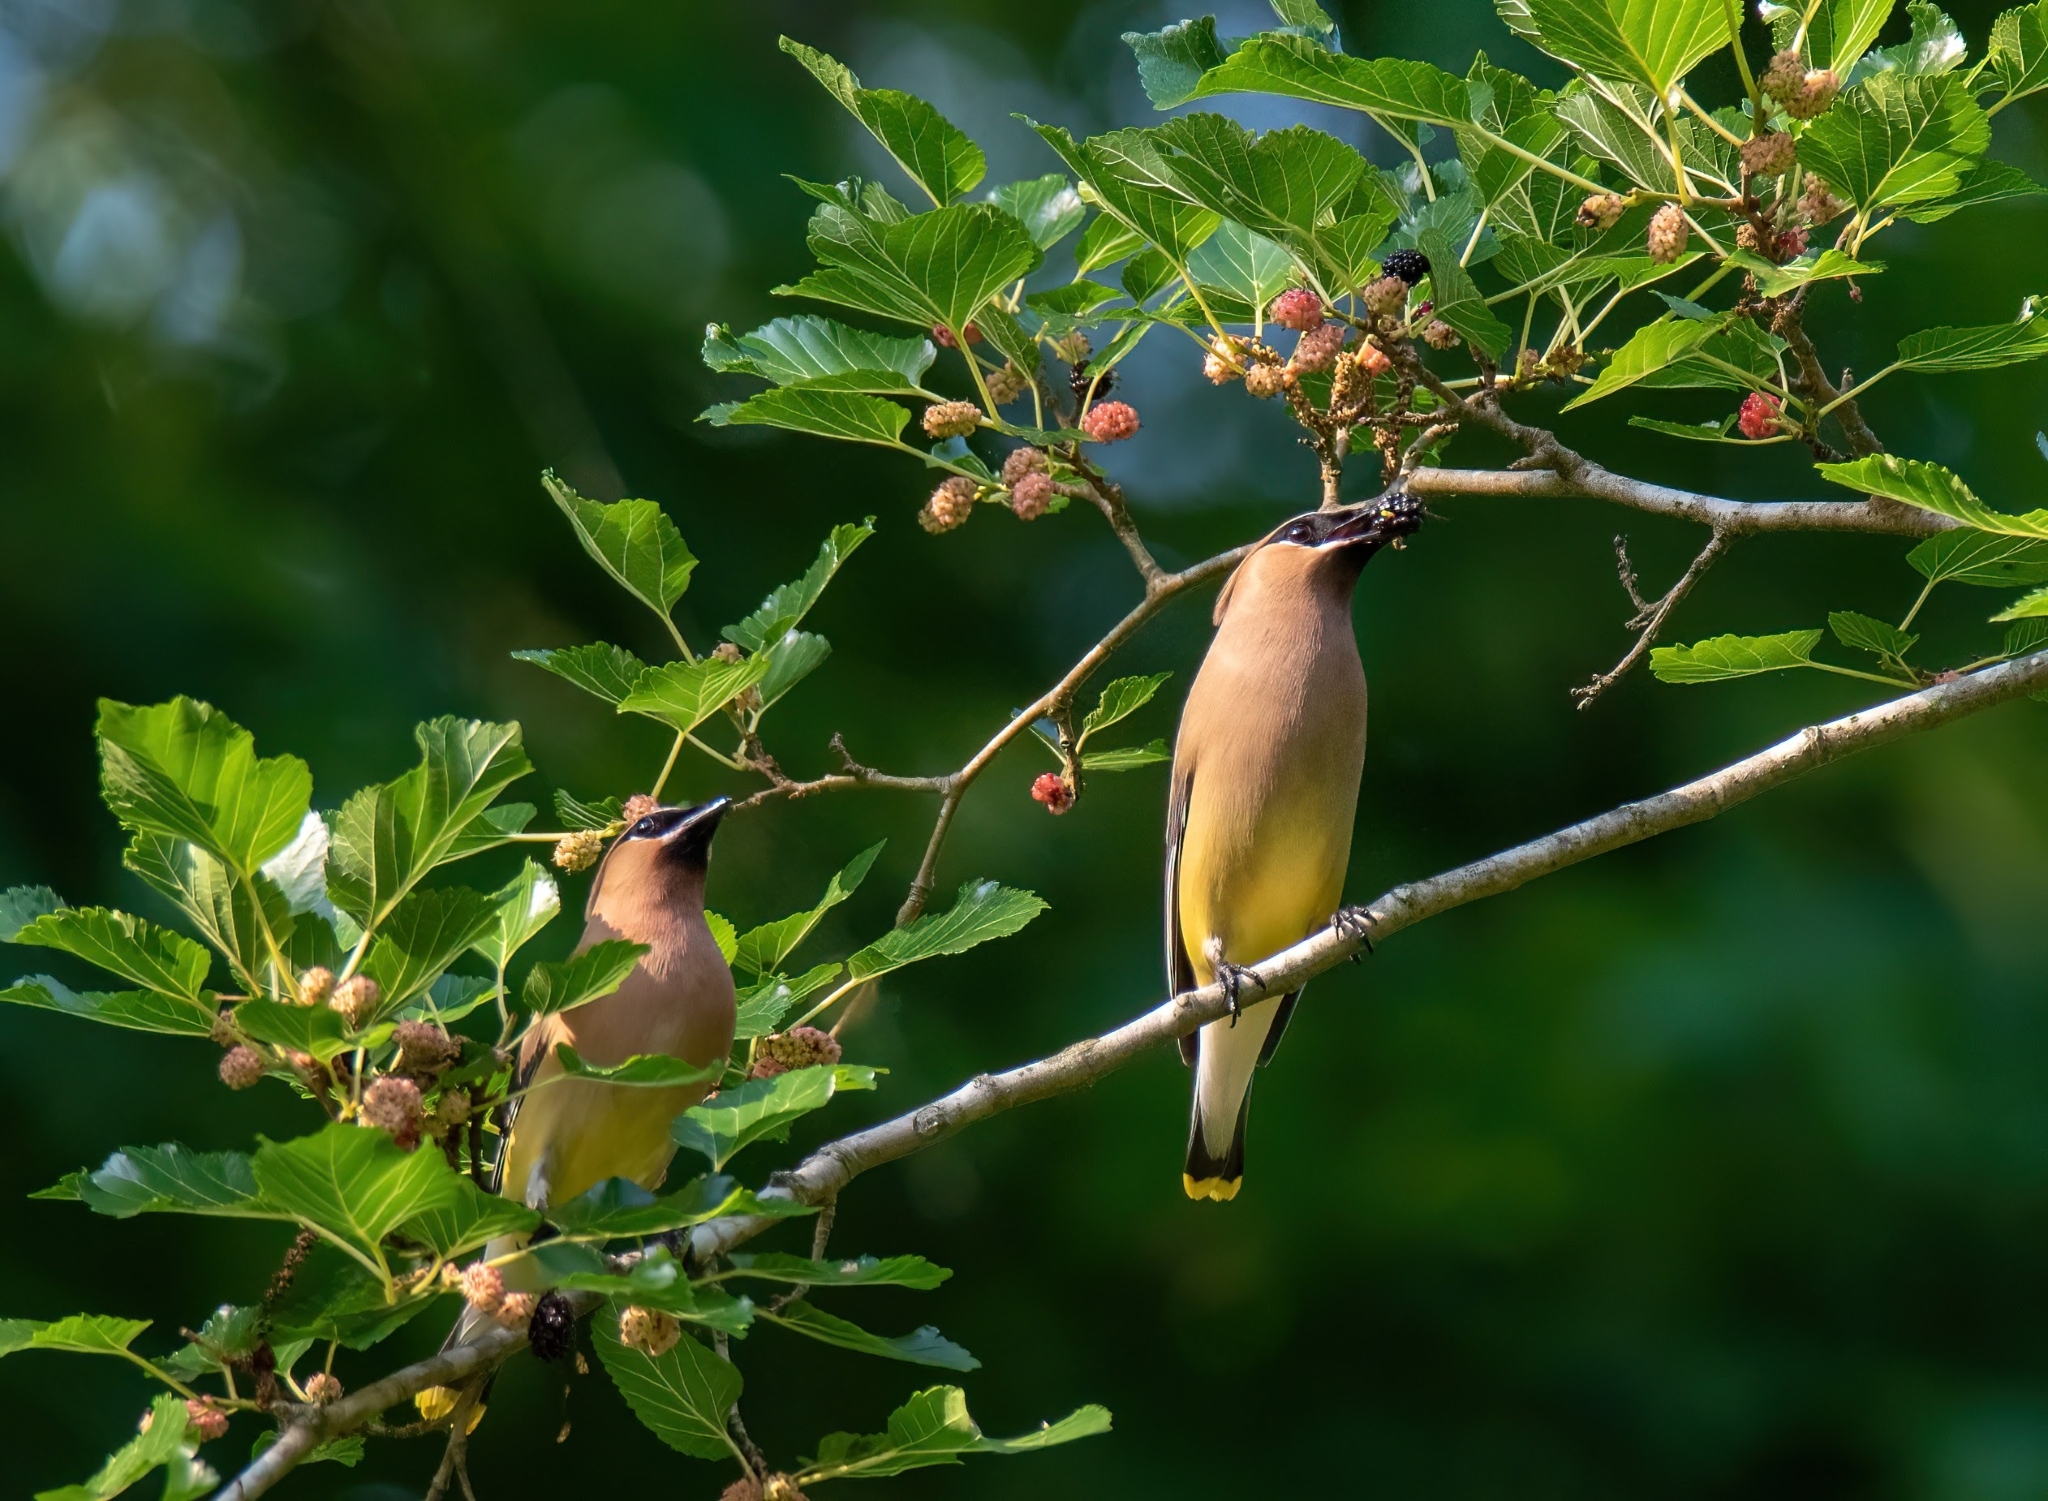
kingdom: Animalia
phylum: Chordata
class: Aves
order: Passeriformes
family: Bombycillidae
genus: Bombycilla
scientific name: Bombycilla cedrorum
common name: Cedar waxwing
